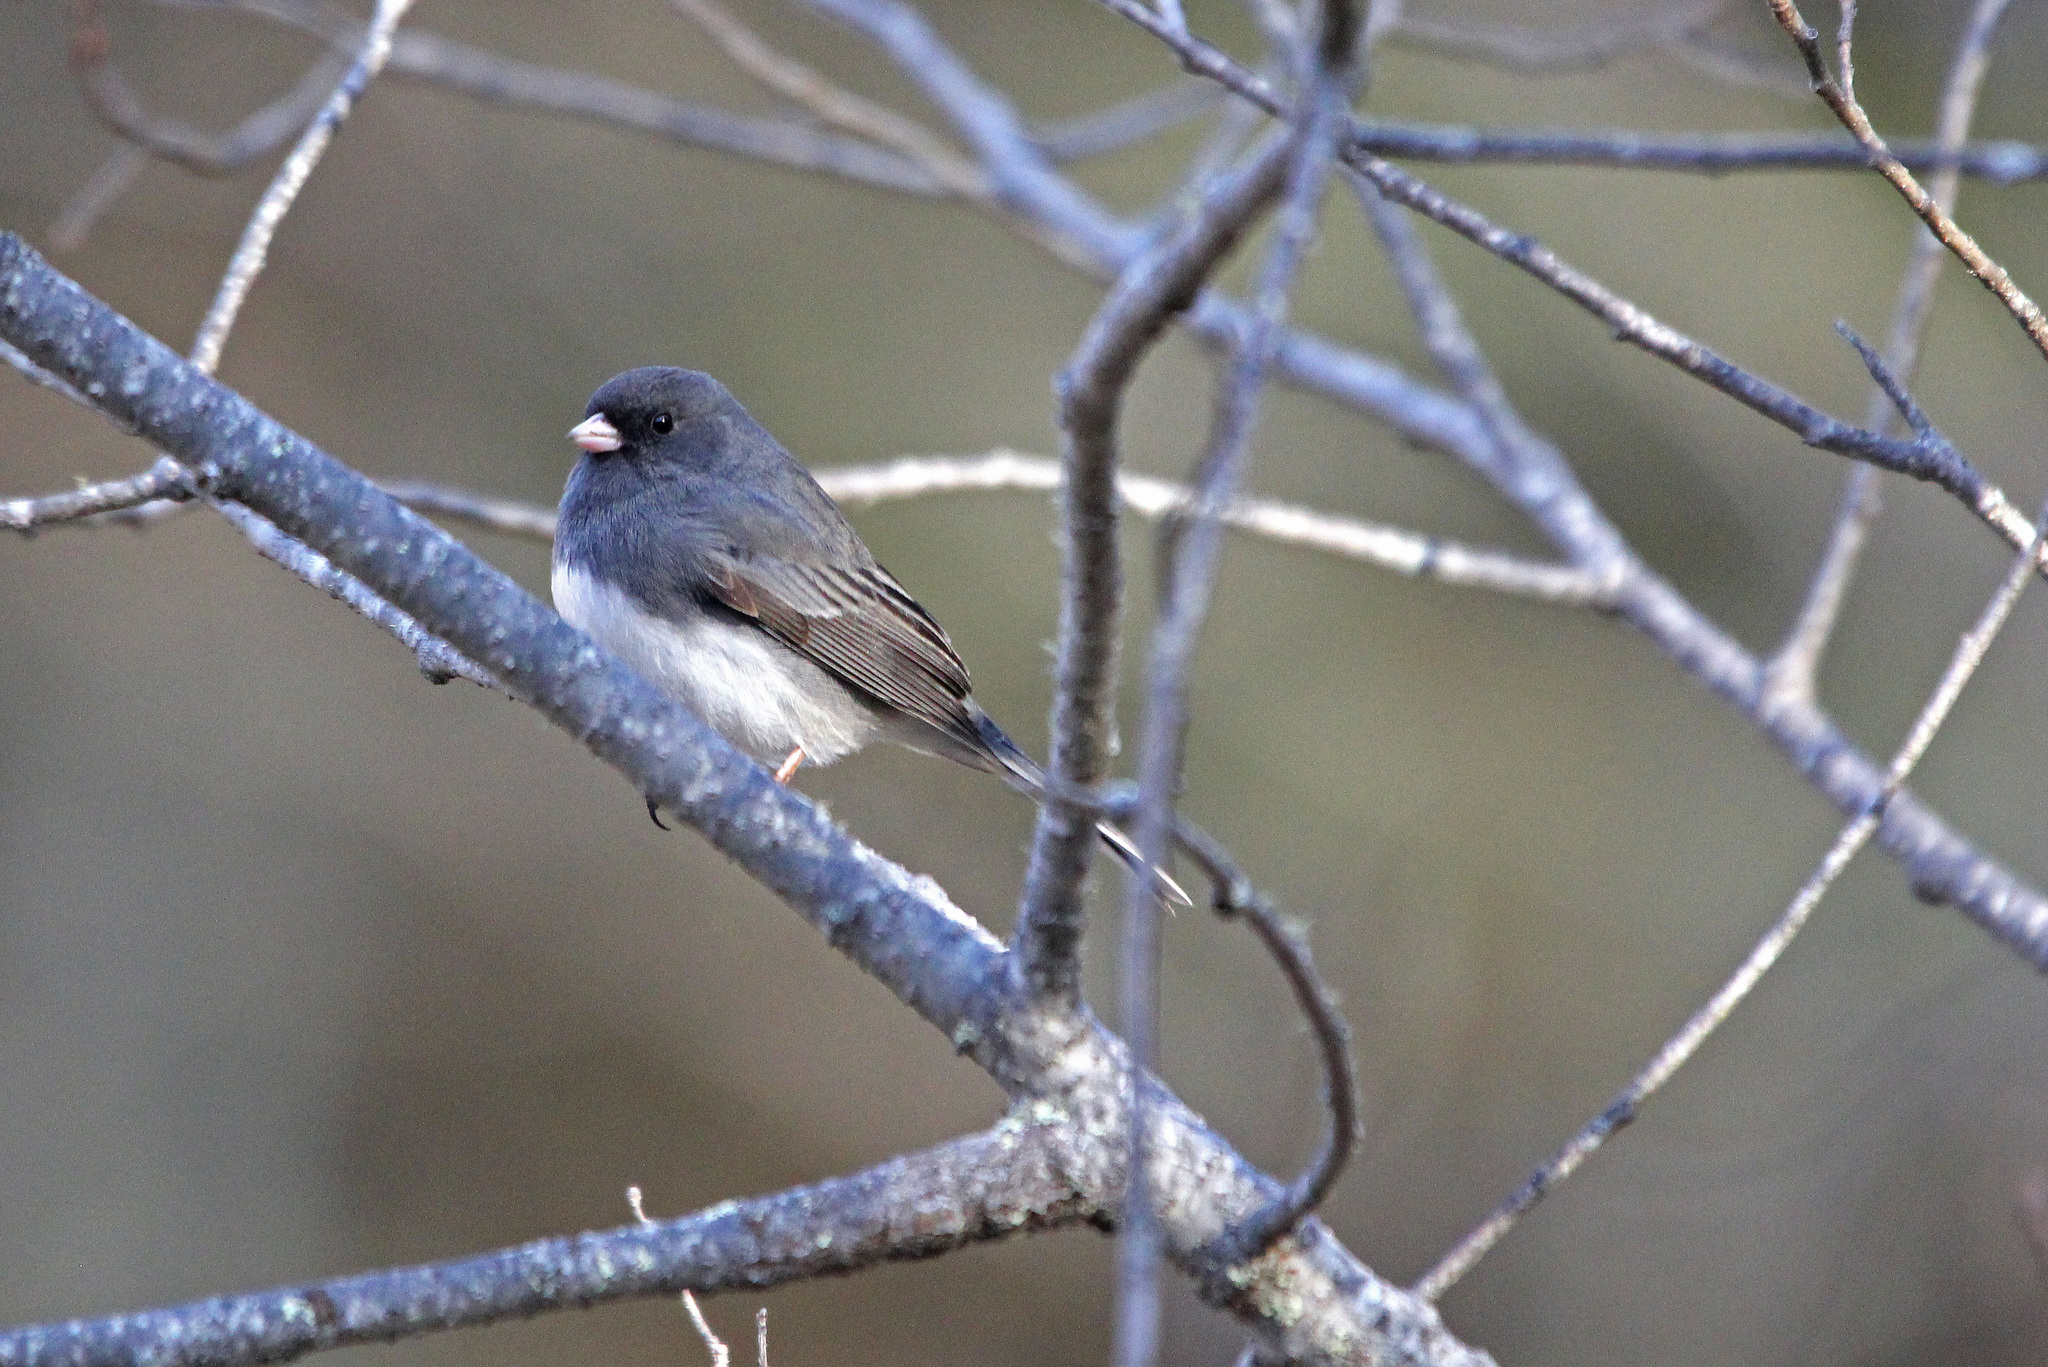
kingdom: Animalia
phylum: Chordata
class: Aves
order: Passeriformes
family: Passerellidae
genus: Junco
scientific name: Junco hyemalis
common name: Dark-eyed junco
